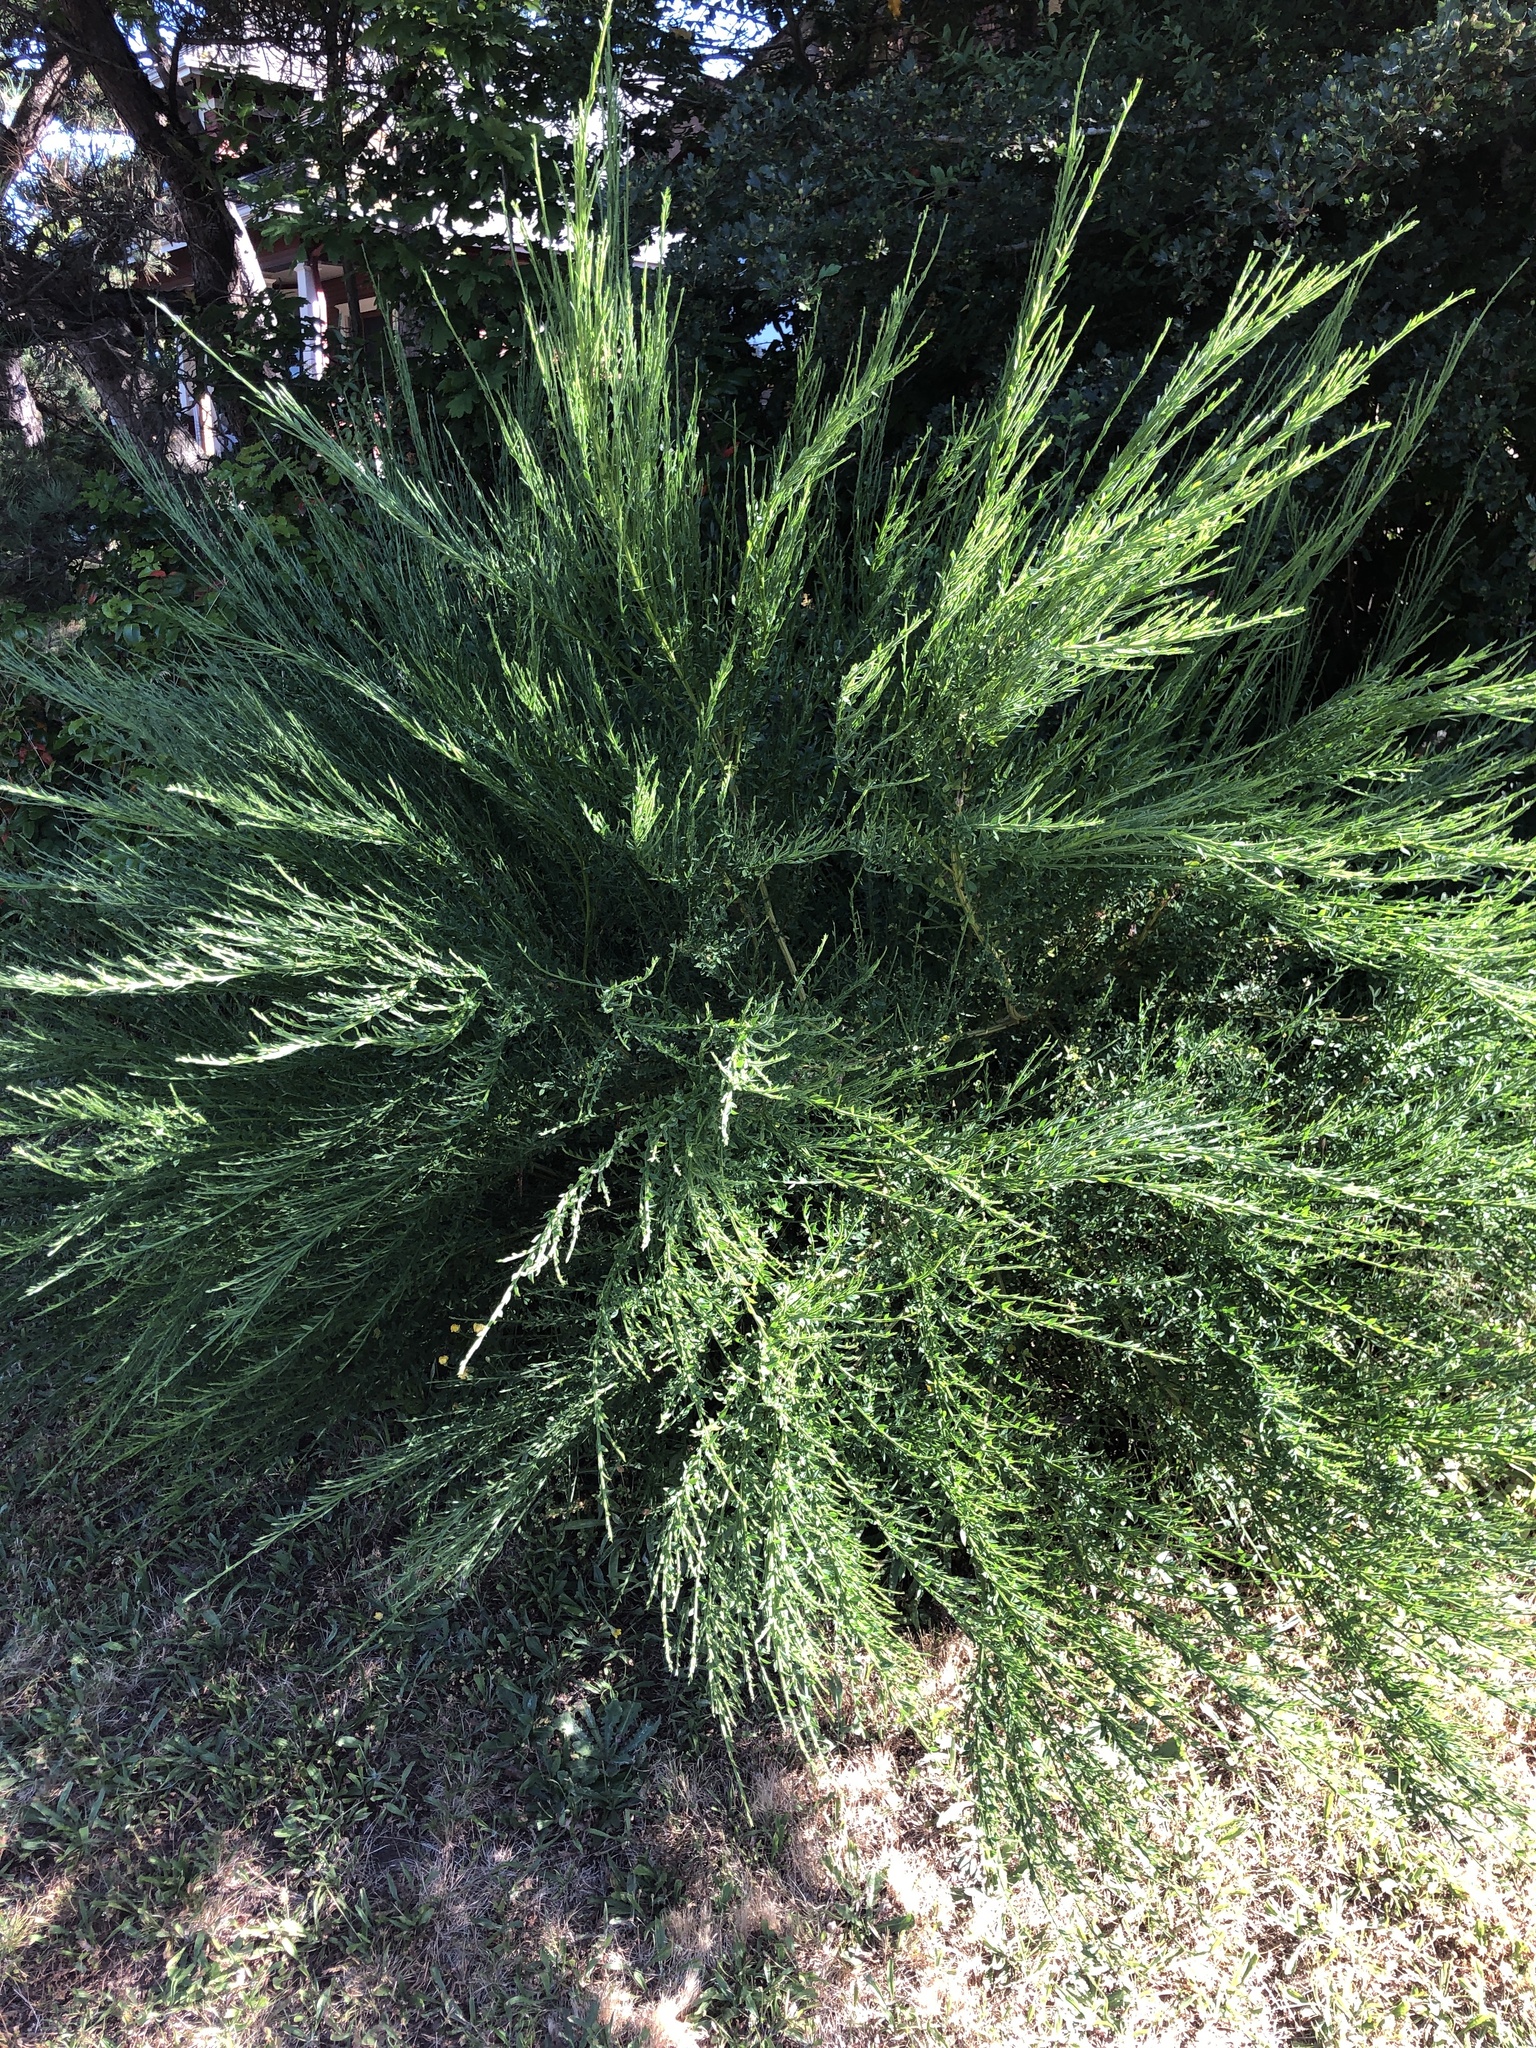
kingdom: Plantae
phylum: Tracheophyta
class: Magnoliopsida
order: Fabales
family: Fabaceae
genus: Cytisus
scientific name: Cytisus scoparius
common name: Scotch broom
